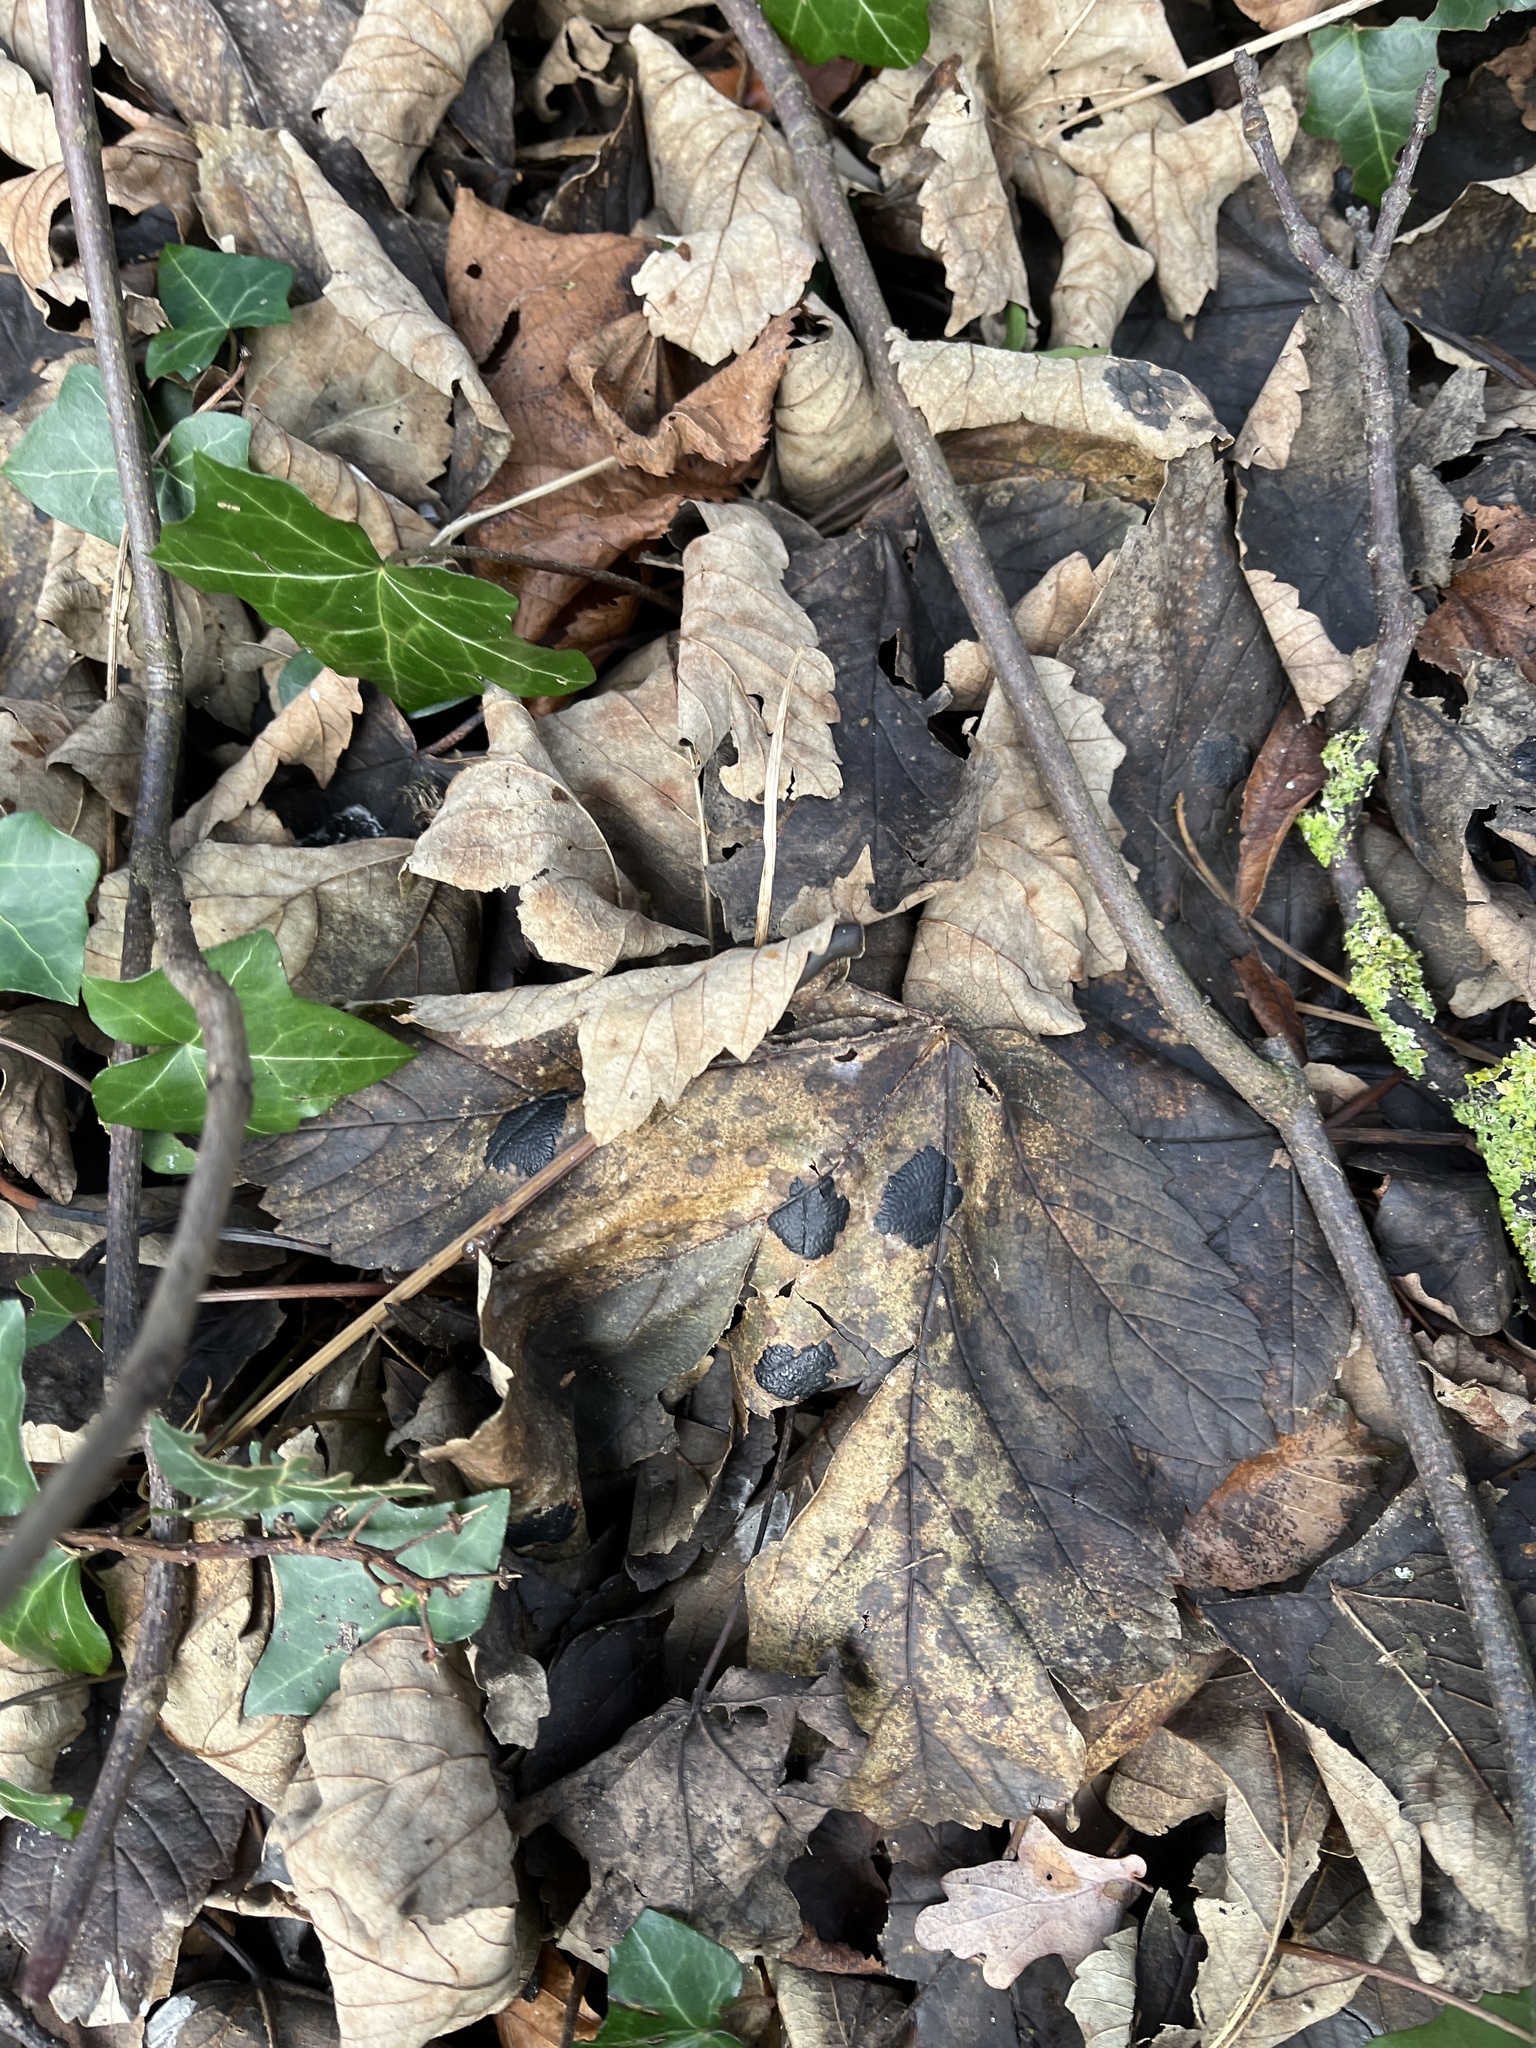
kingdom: Plantae
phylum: Tracheophyta
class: Magnoliopsida
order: Sapindales
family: Sapindaceae
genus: Acer
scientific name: Acer pseudoplatanus
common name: Sycamore
